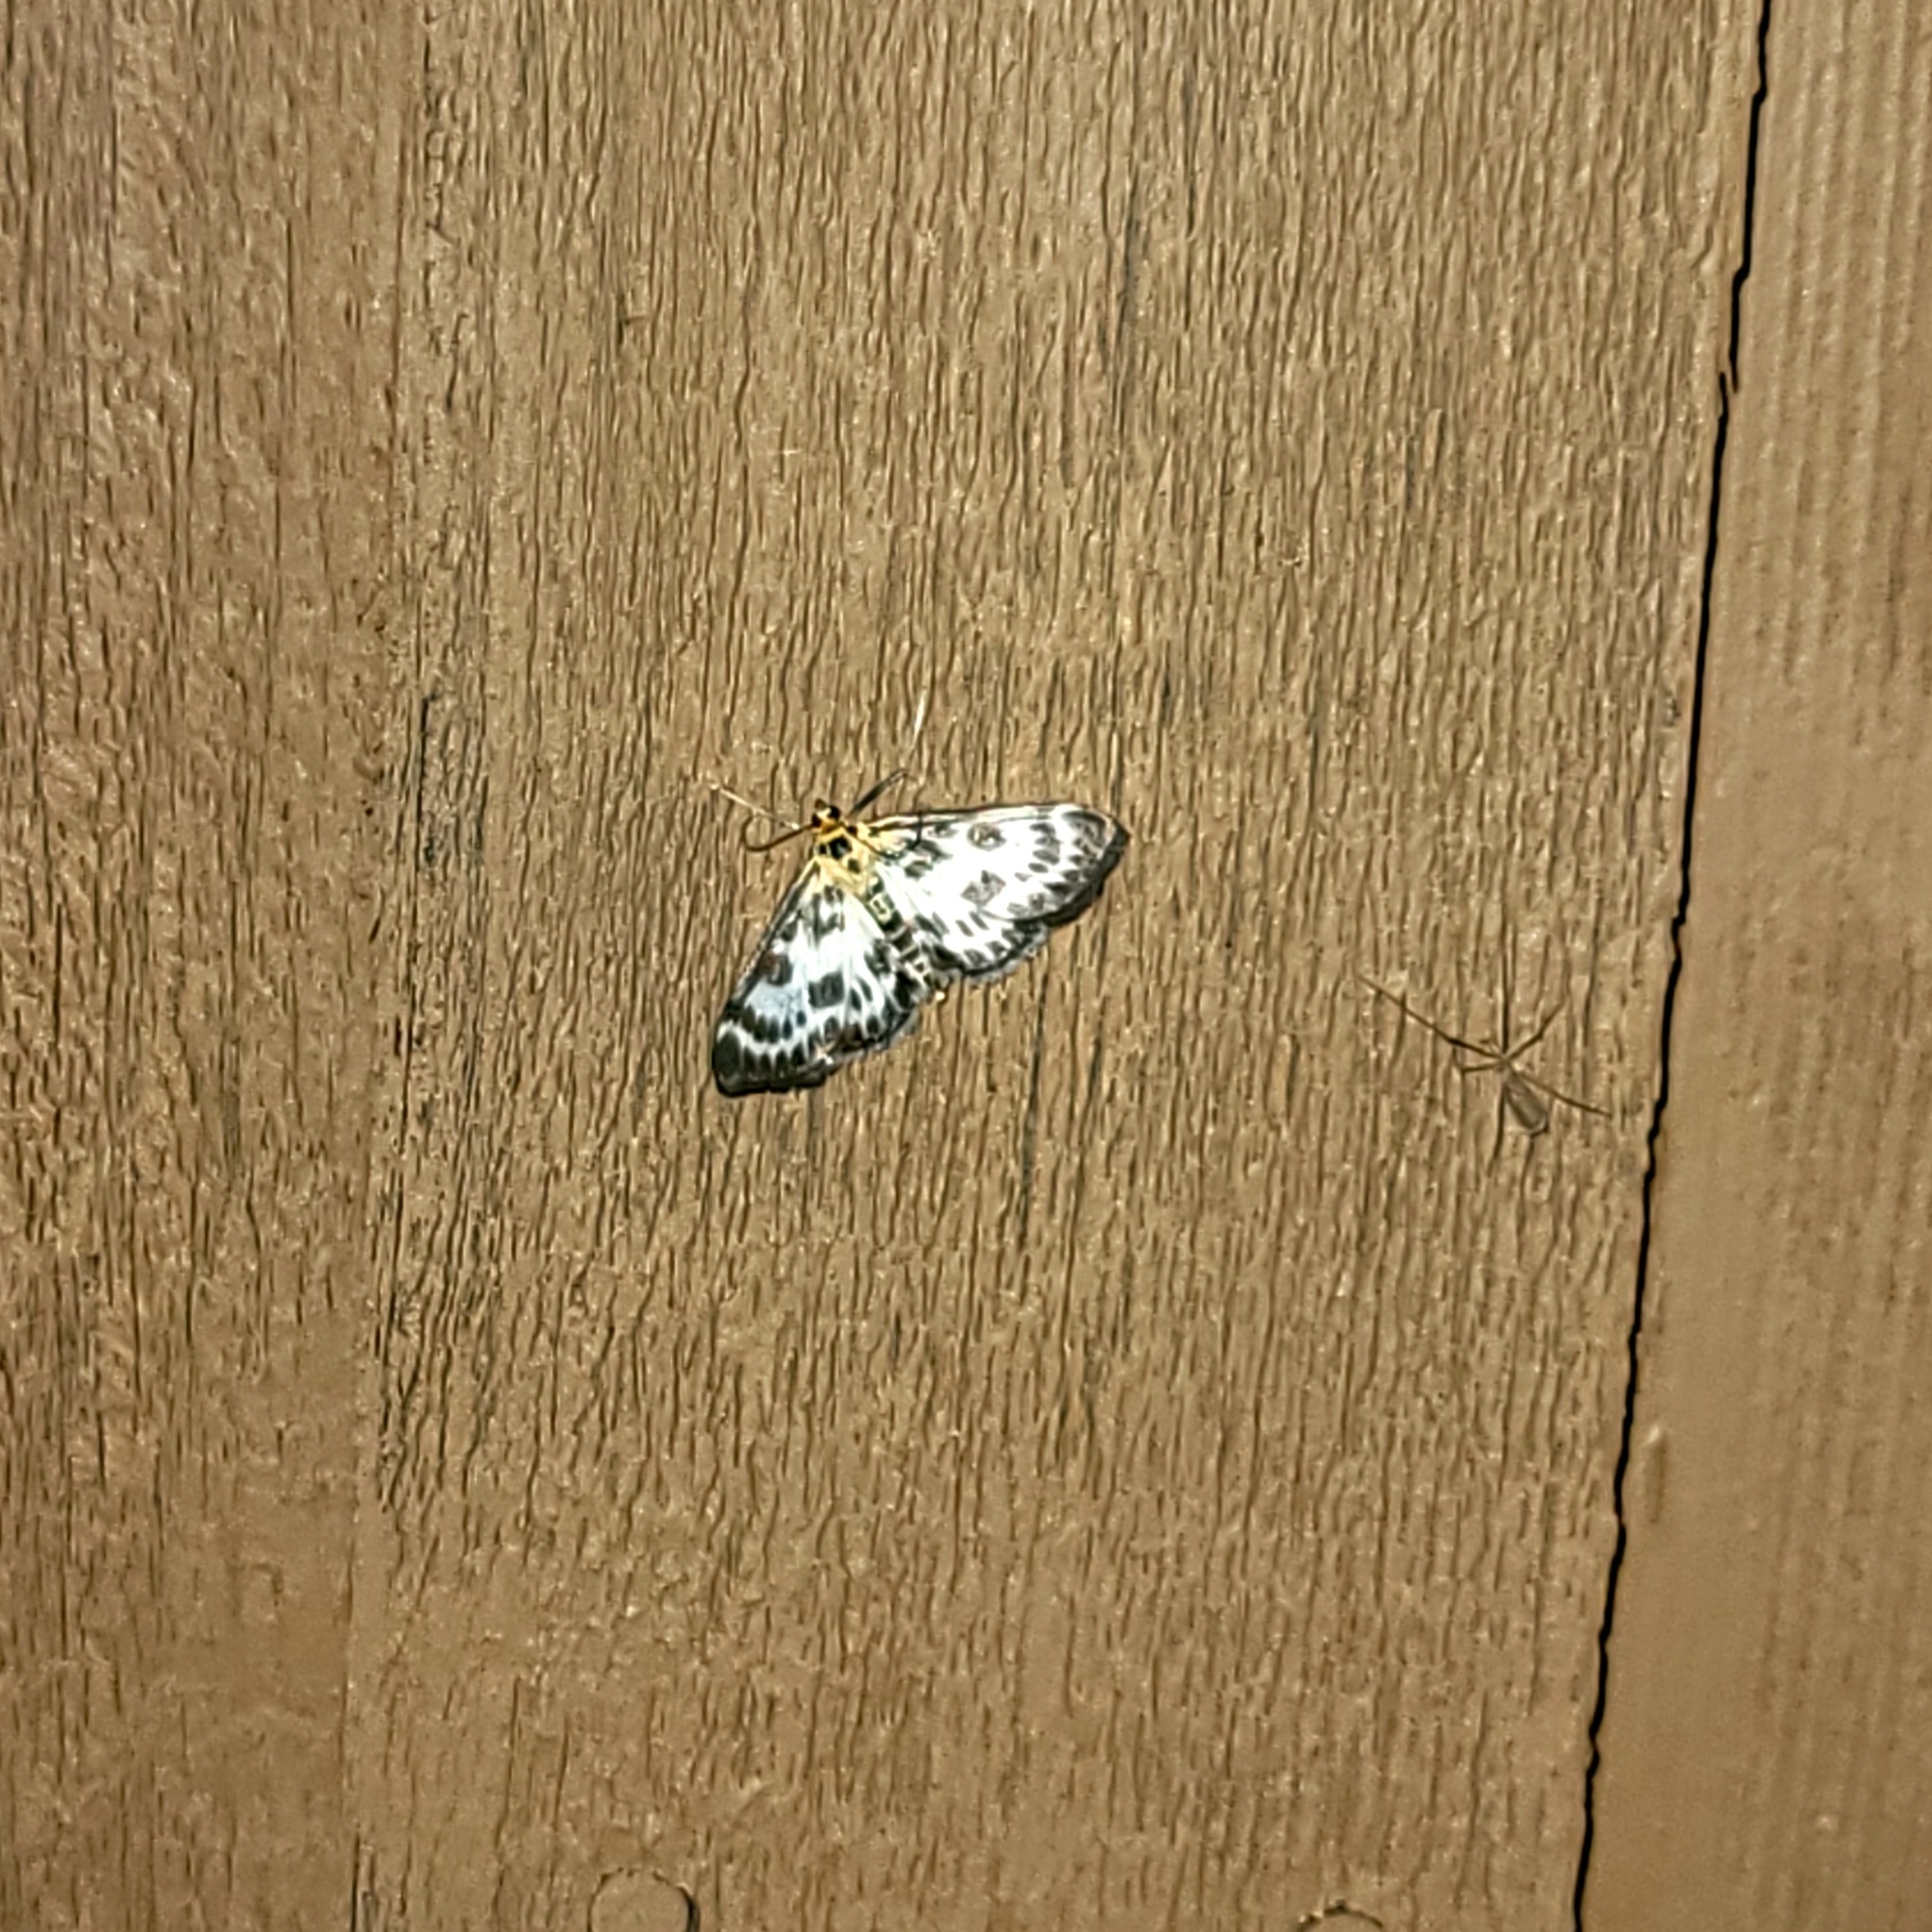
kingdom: Animalia
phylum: Arthropoda
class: Insecta
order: Lepidoptera
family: Crambidae
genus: Anania
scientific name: Anania hortulata
